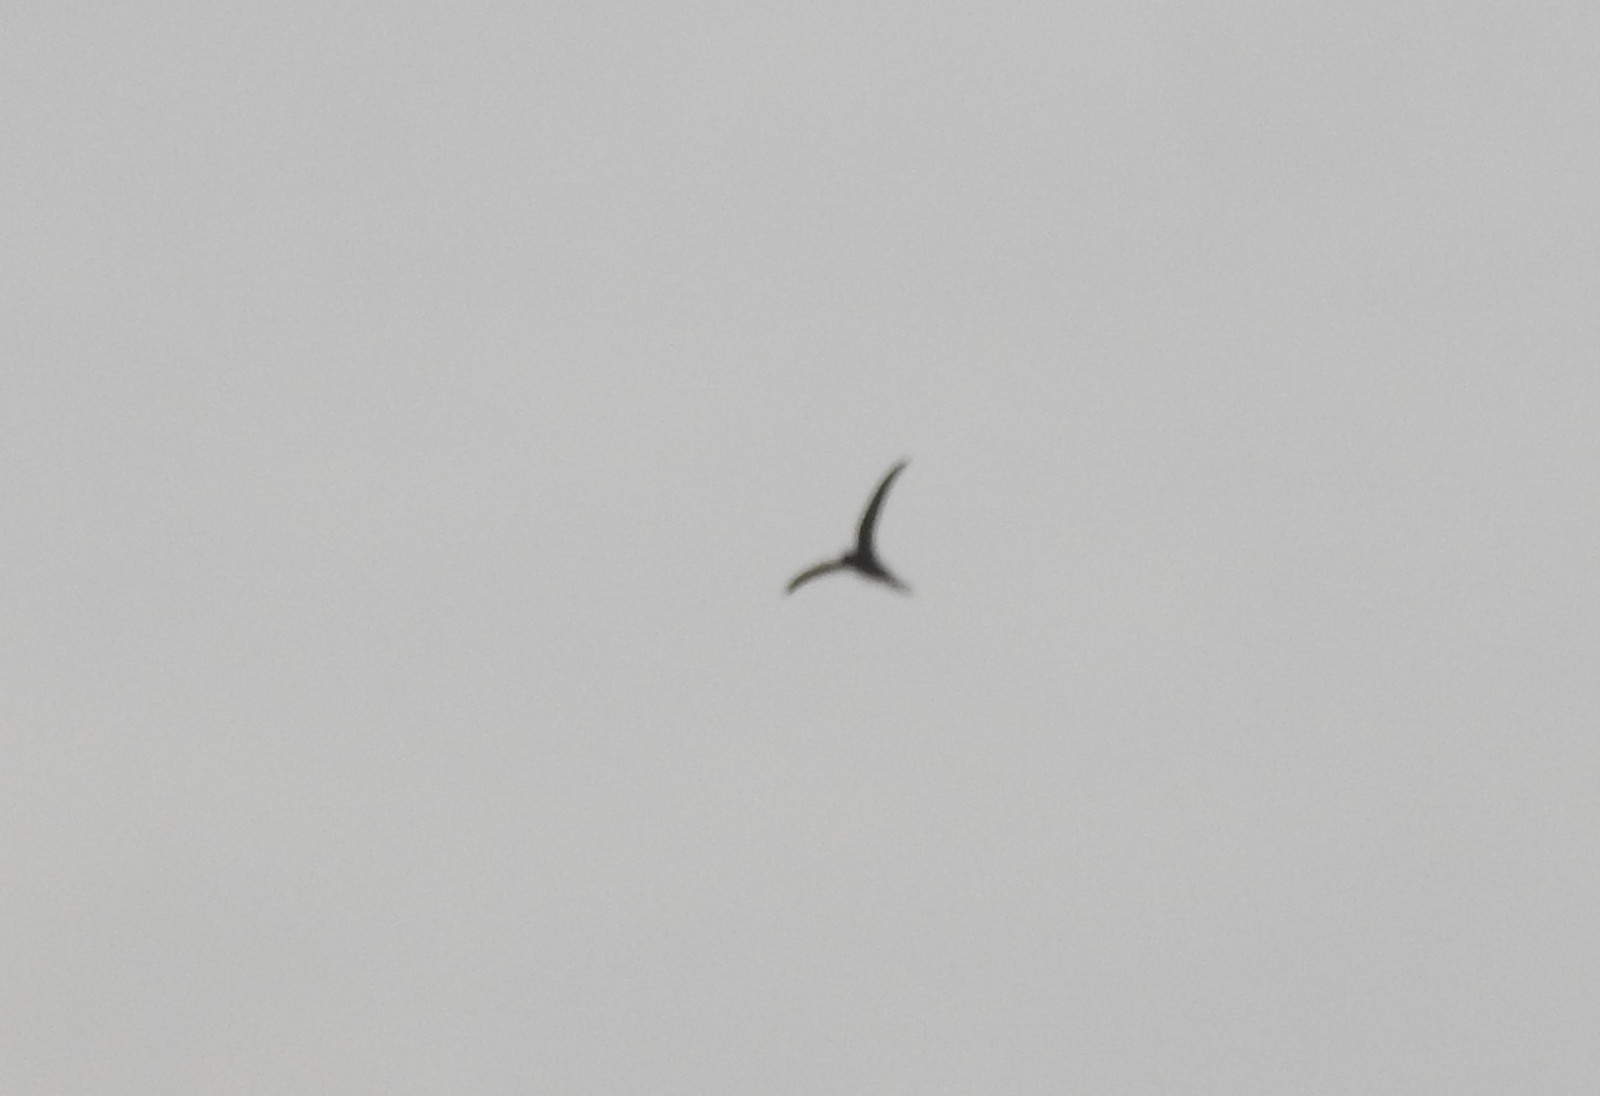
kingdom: Animalia
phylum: Chordata
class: Aves
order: Apodiformes
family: Apodidae
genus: Cypsiurus
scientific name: Cypsiurus balasiensis
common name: Asian palm swift
